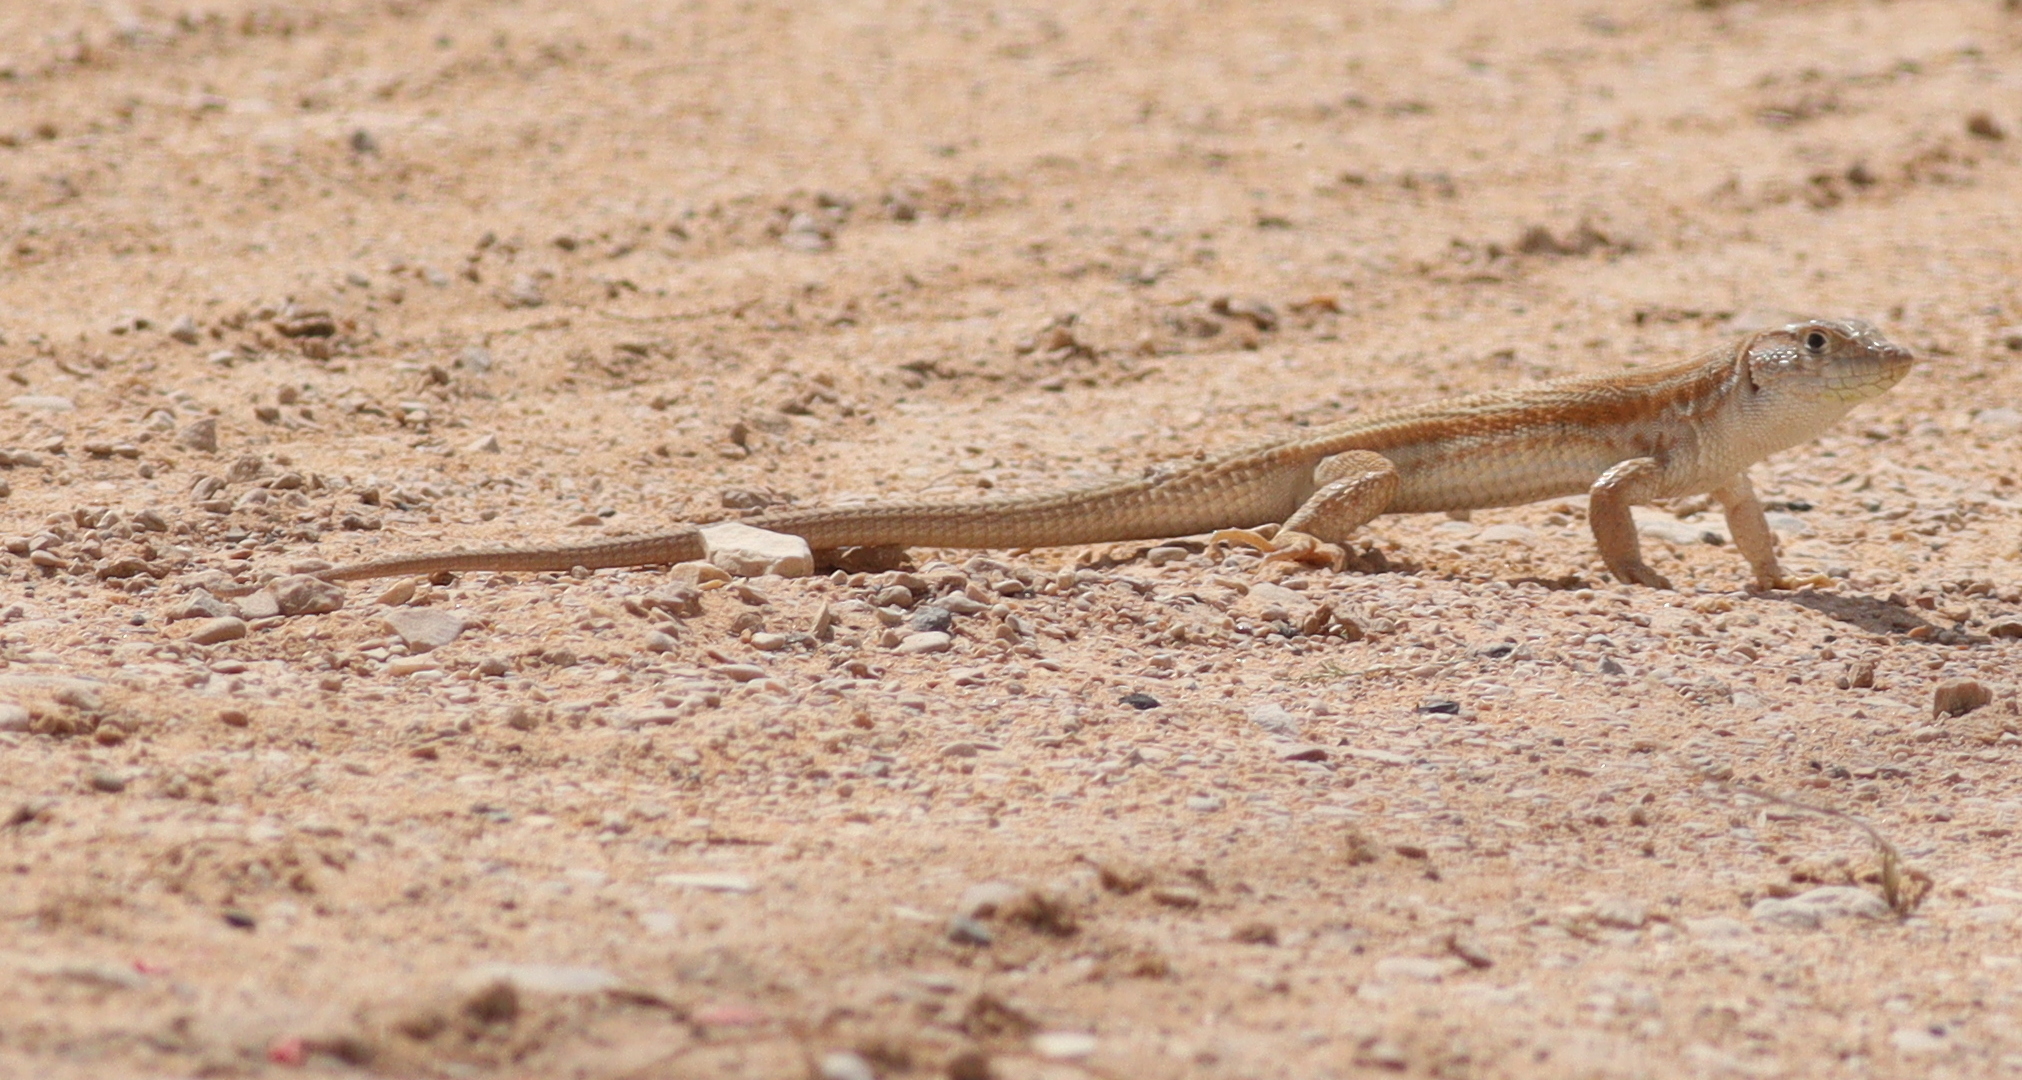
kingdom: Animalia
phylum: Chordata
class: Squamata
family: Lacertidae
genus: Acanthodactylus
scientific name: Acanthodactylus boskianus
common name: Bosc’s fringe-toed lizard
